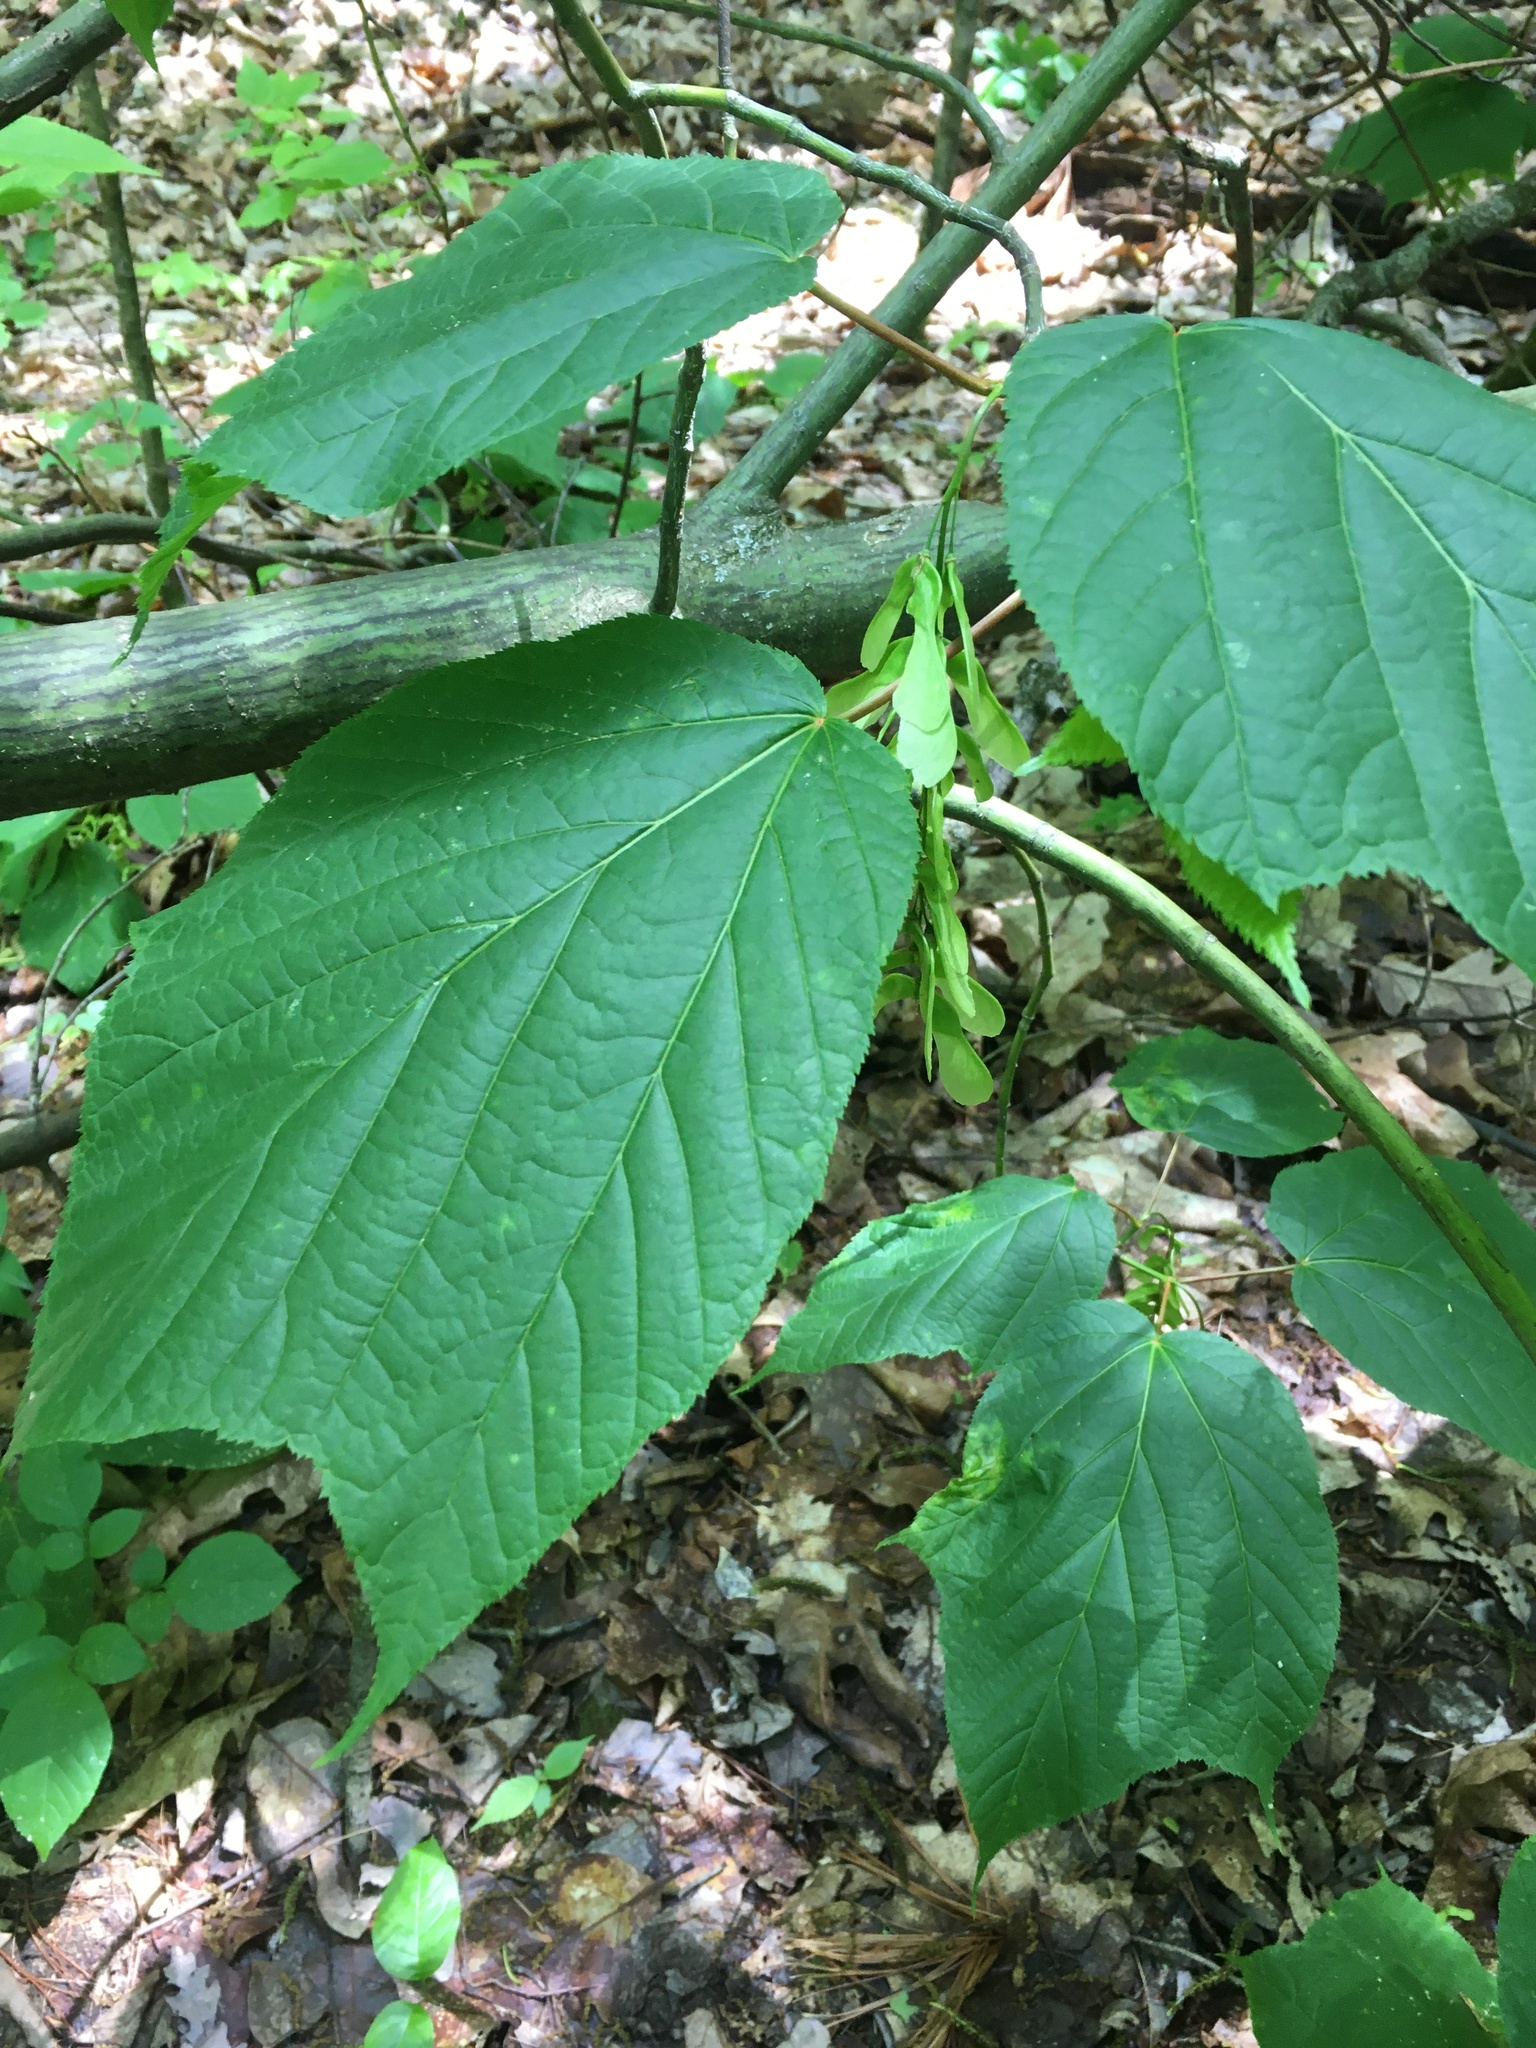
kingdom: Plantae
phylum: Tracheophyta
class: Magnoliopsida
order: Sapindales
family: Sapindaceae
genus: Acer
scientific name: Acer pensylvanicum
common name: Moosewood
